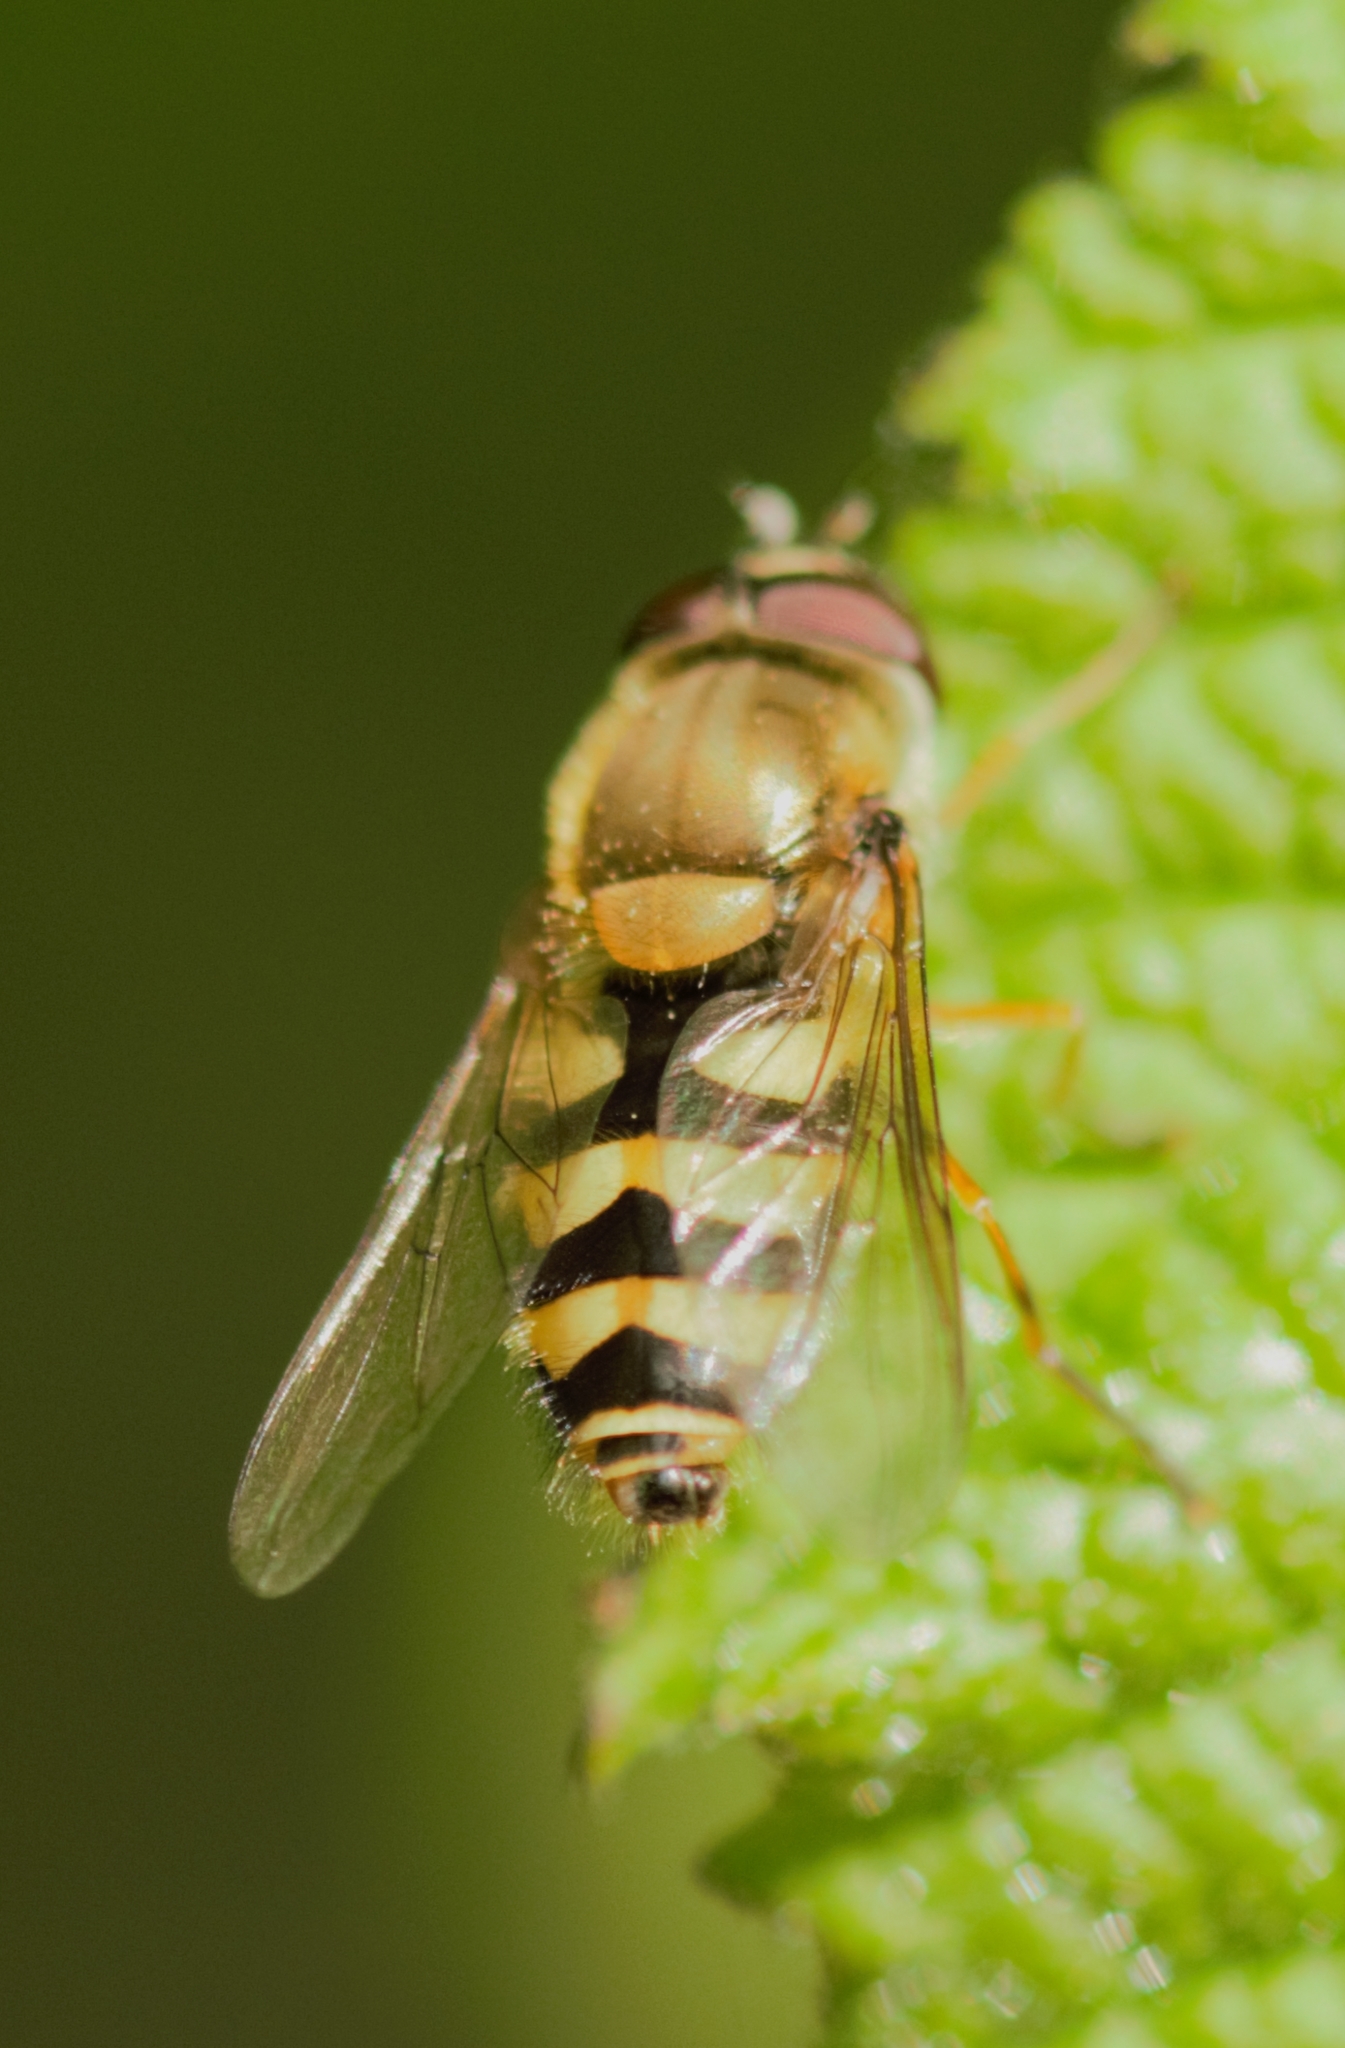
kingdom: Animalia
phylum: Arthropoda
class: Insecta
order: Diptera
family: Syrphidae
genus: Syrphus
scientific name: Syrphus
